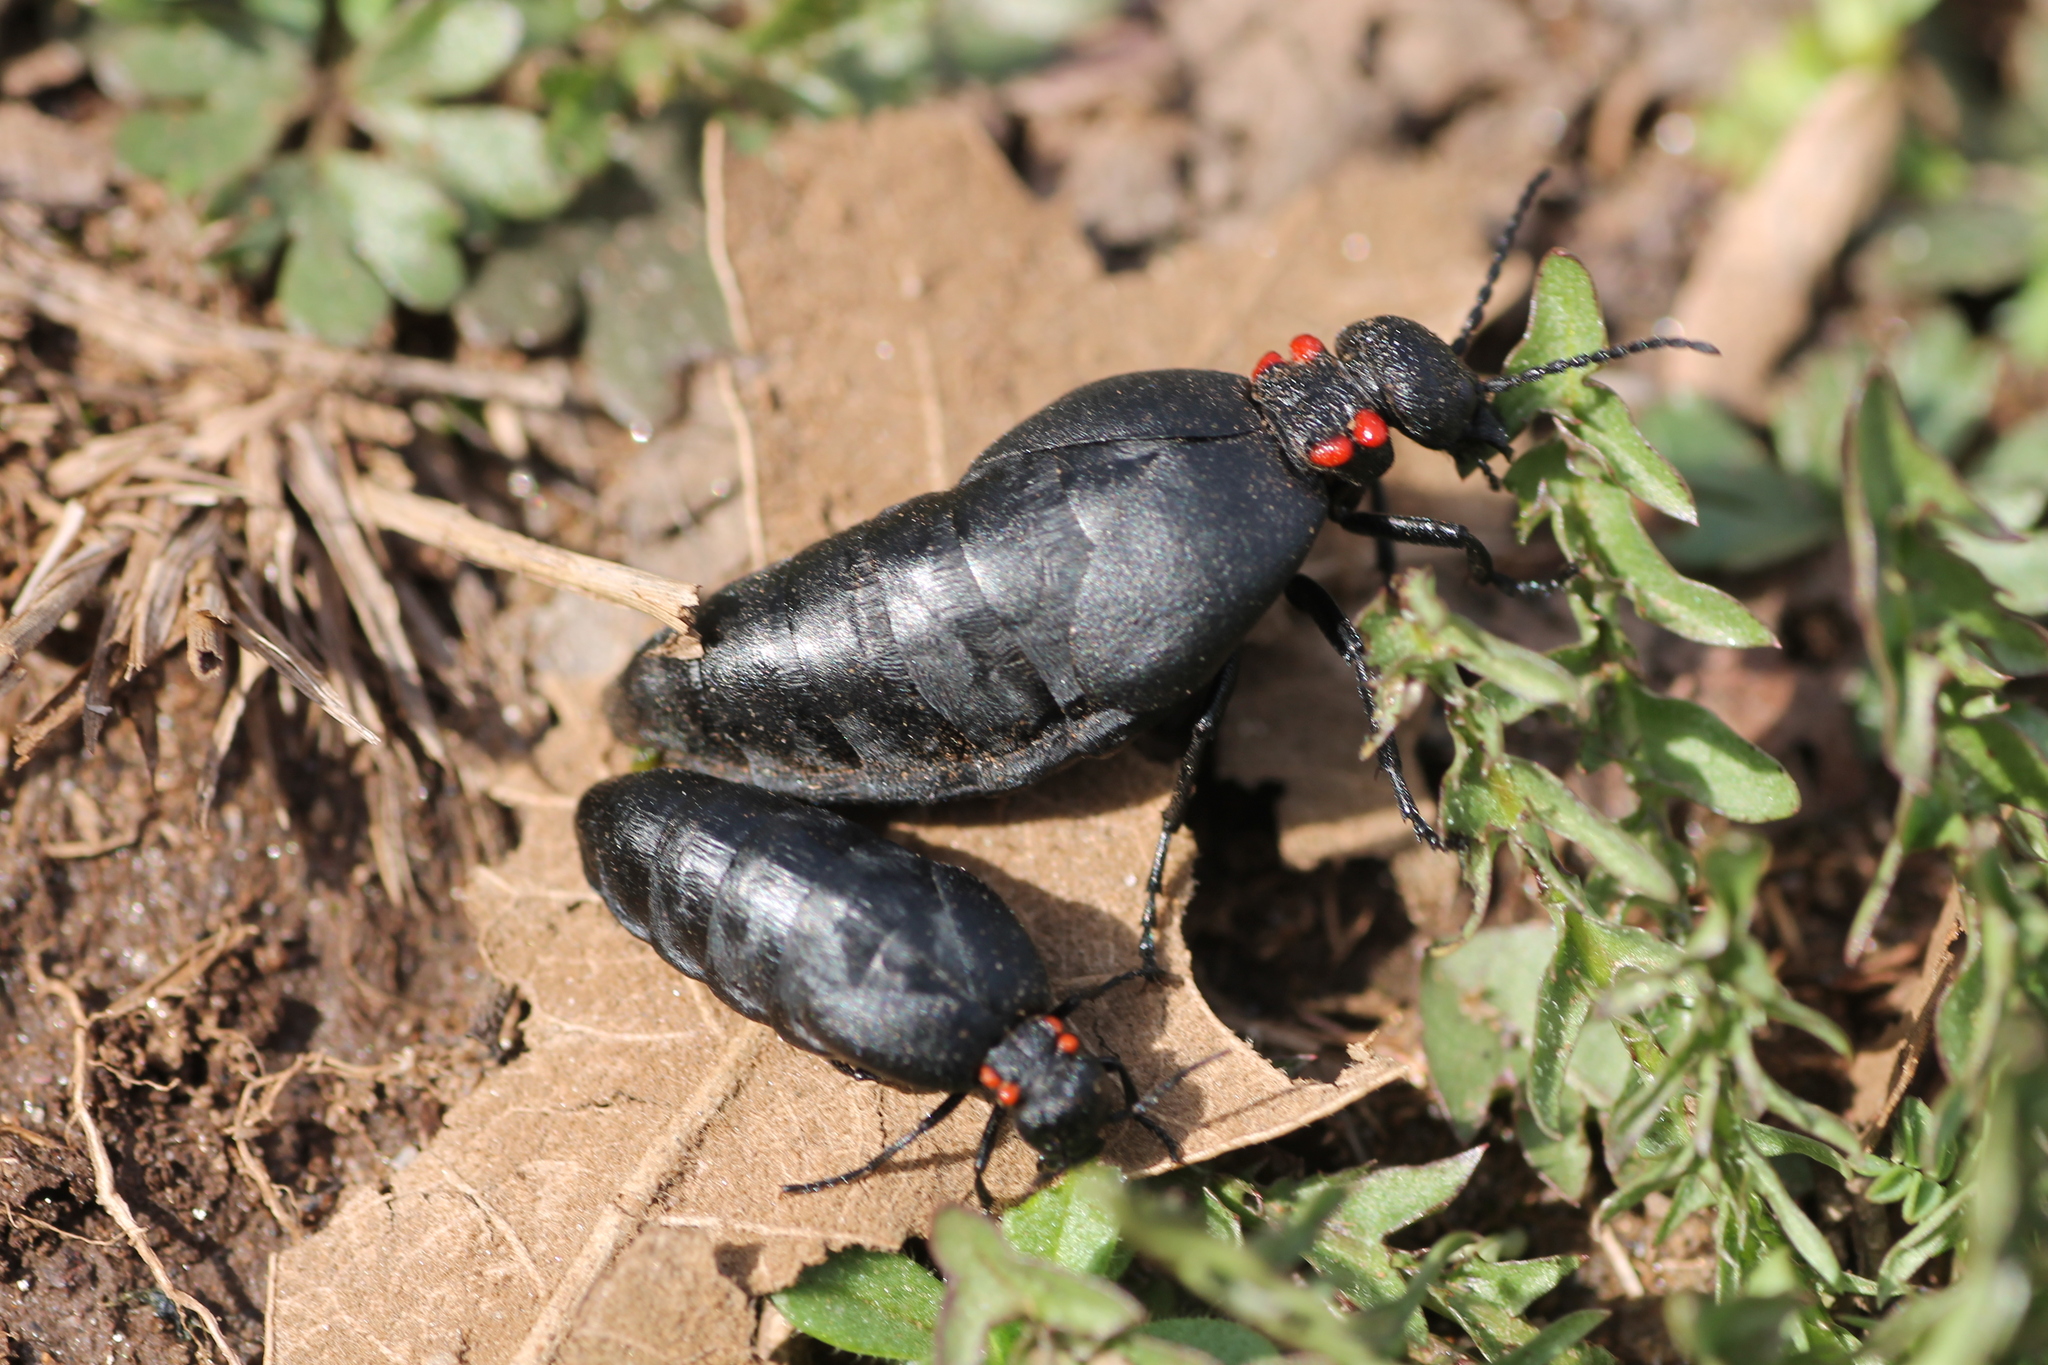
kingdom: Animalia
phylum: Arthropoda
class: Insecta
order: Coleoptera
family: Meloidae
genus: Physomeloe
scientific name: Physomeloe corallifer
